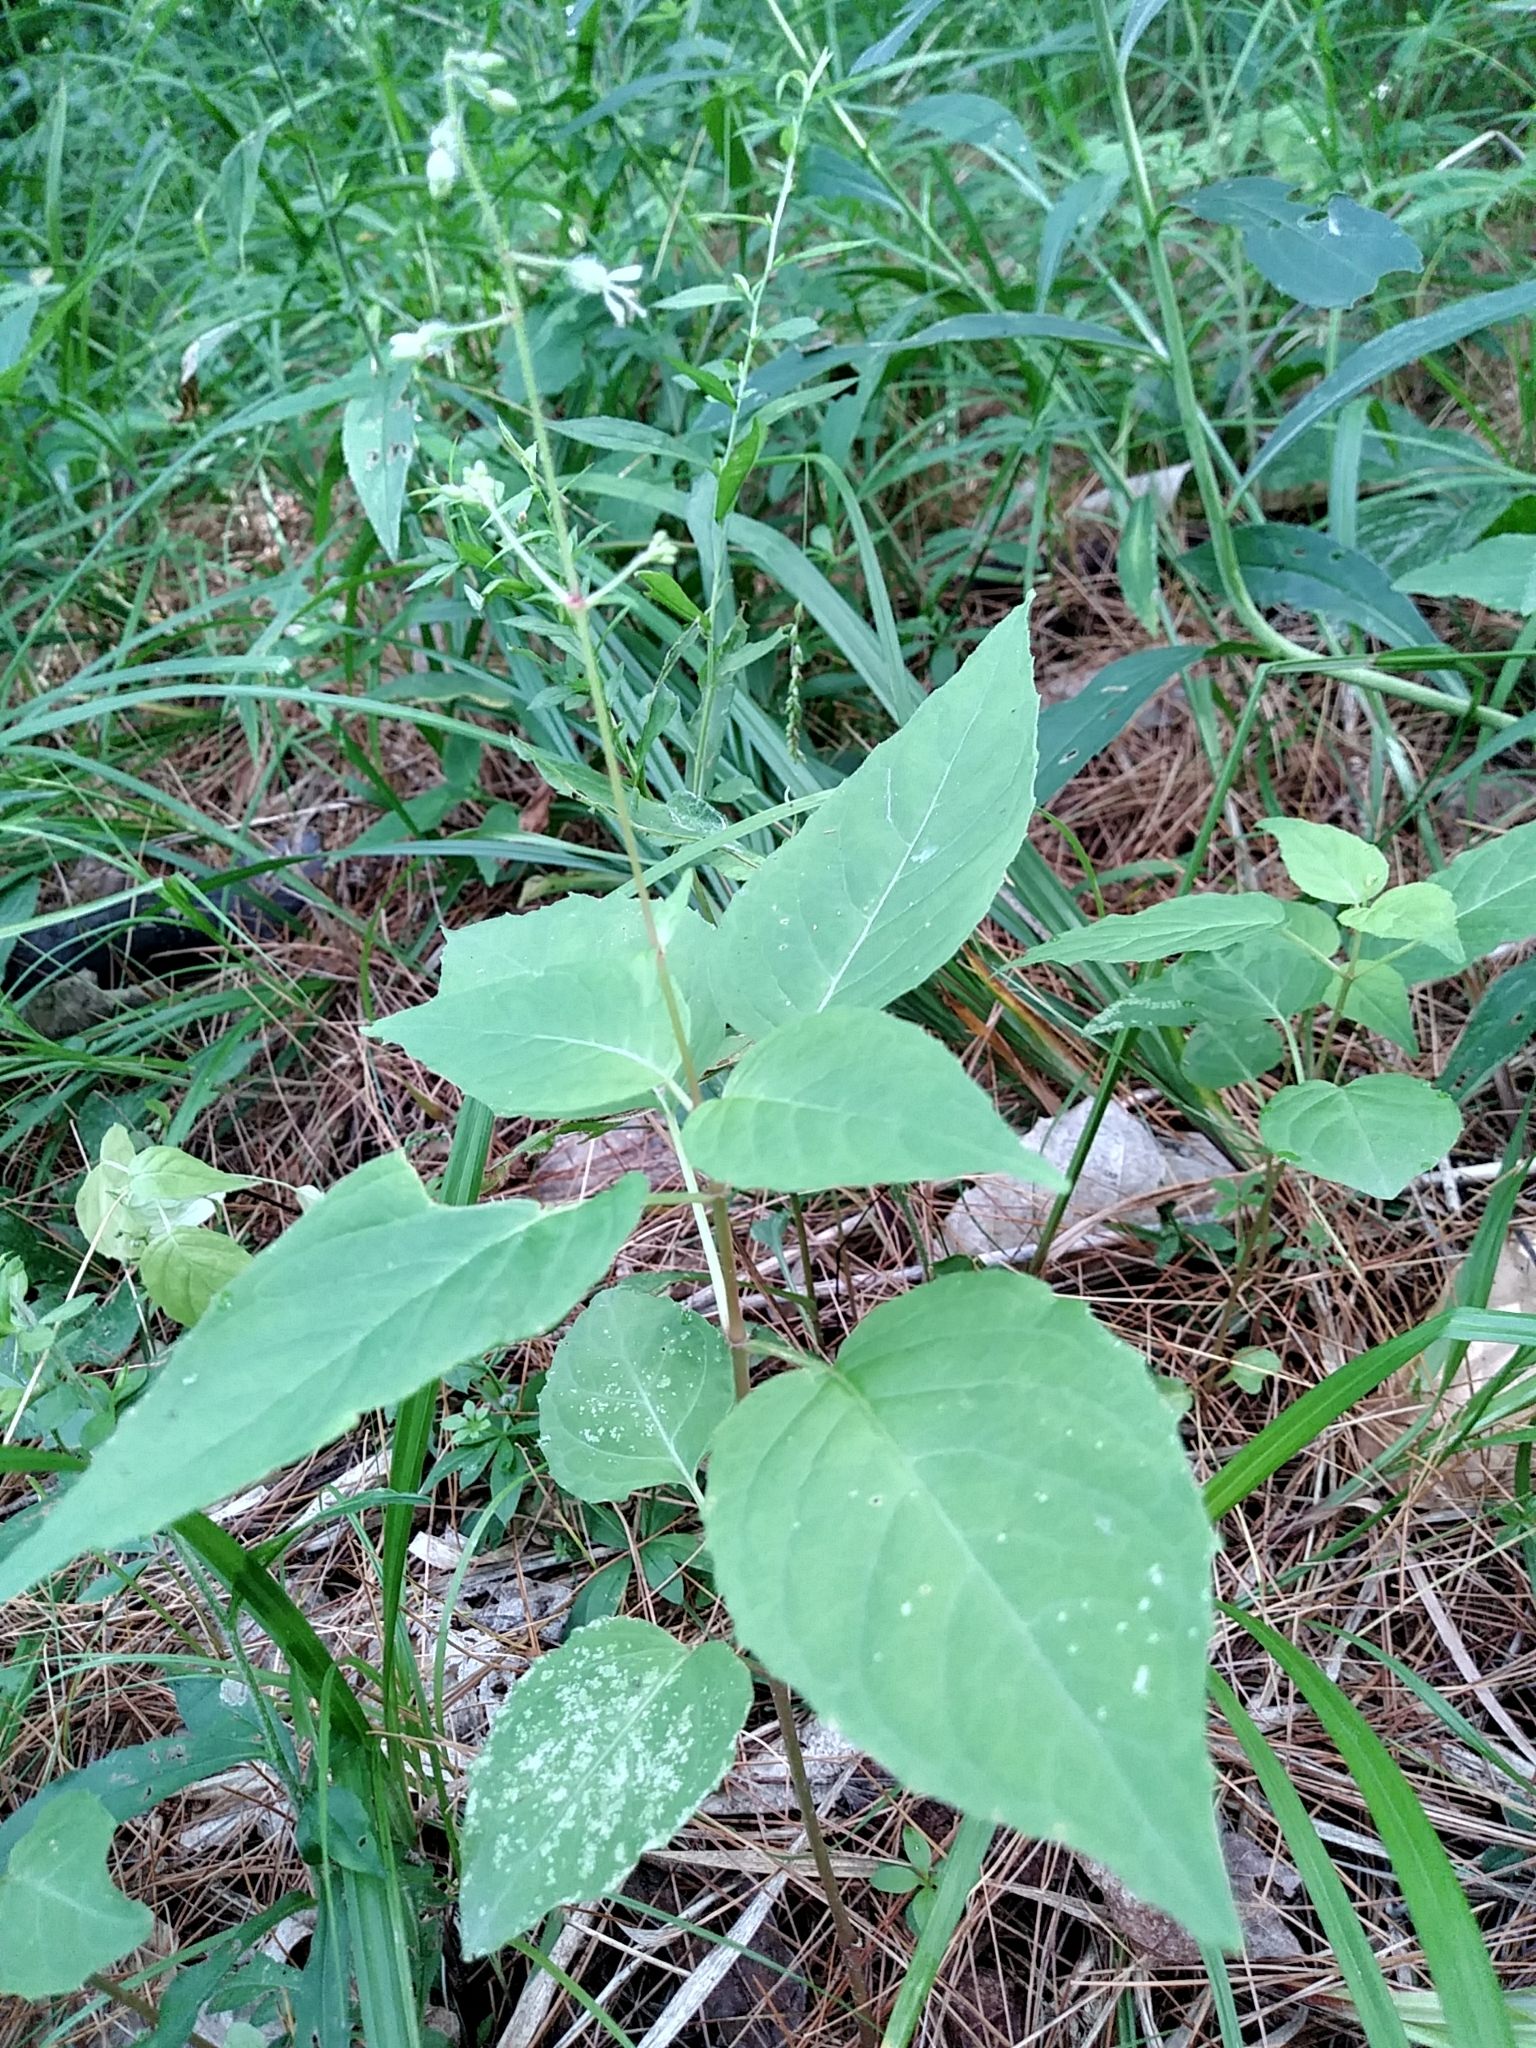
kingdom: Plantae
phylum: Tracheophyta
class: Magnoliopsida
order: Myrtales
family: Onagraceae
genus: Circaea
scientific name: Circaea canadensis
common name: Broad-leaved enchanter's nightshade
